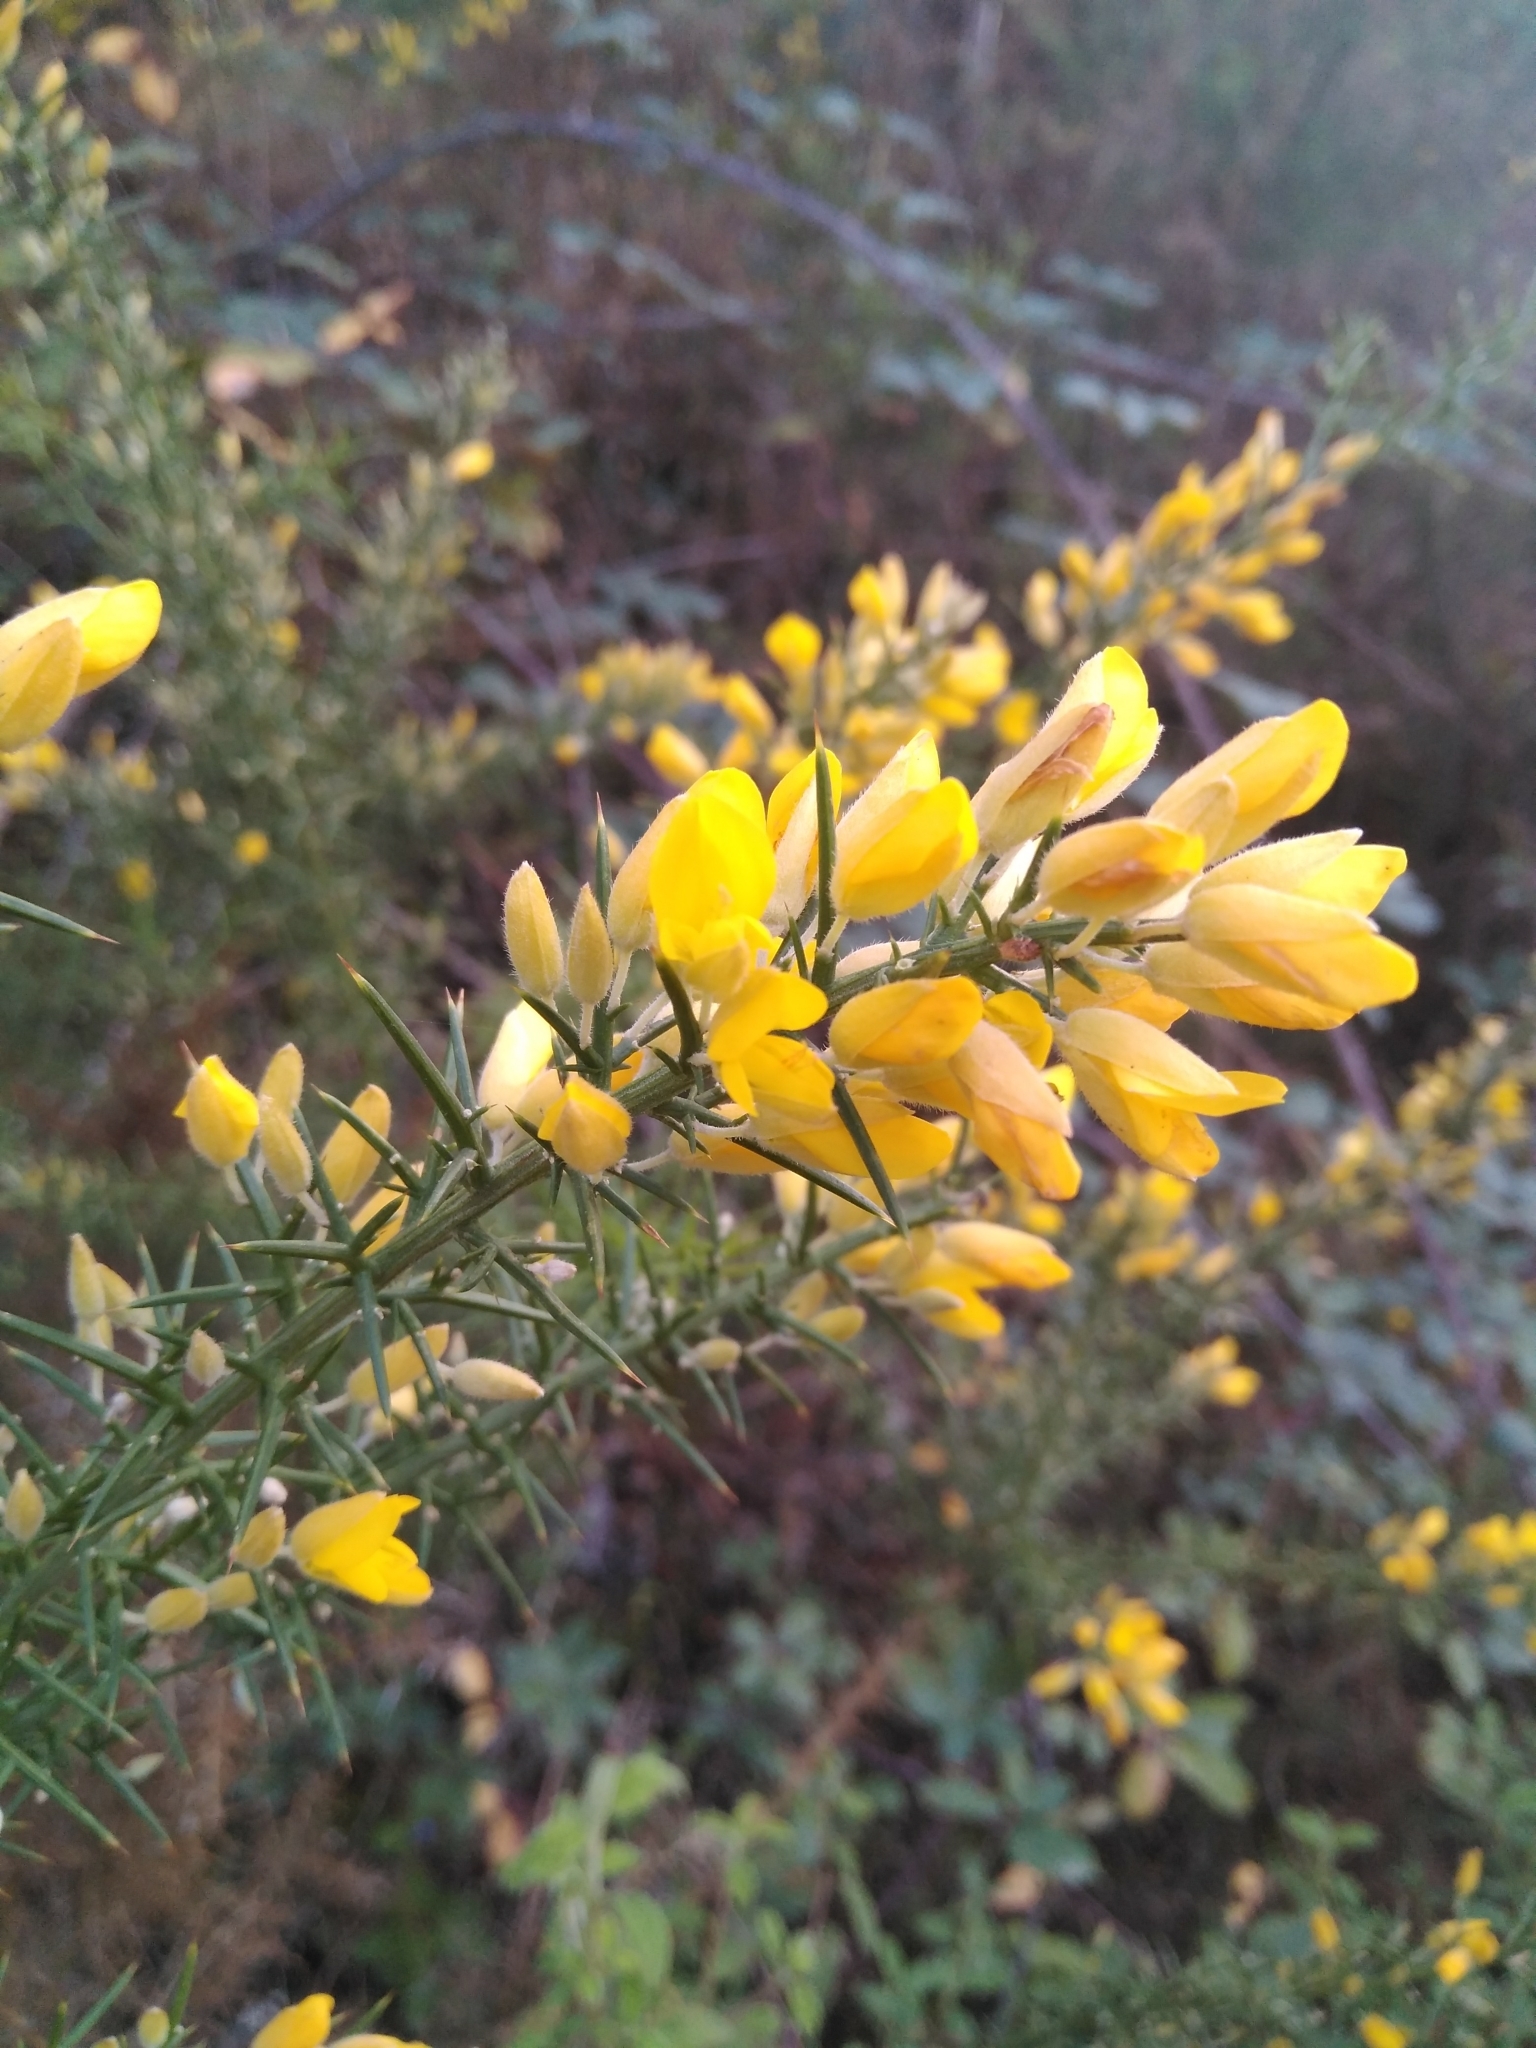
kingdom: Plantae
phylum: Tracheophyta
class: Magnoliopsida
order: Fabales
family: Fabaceae
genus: Ulex
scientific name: Ulex parviflorus
